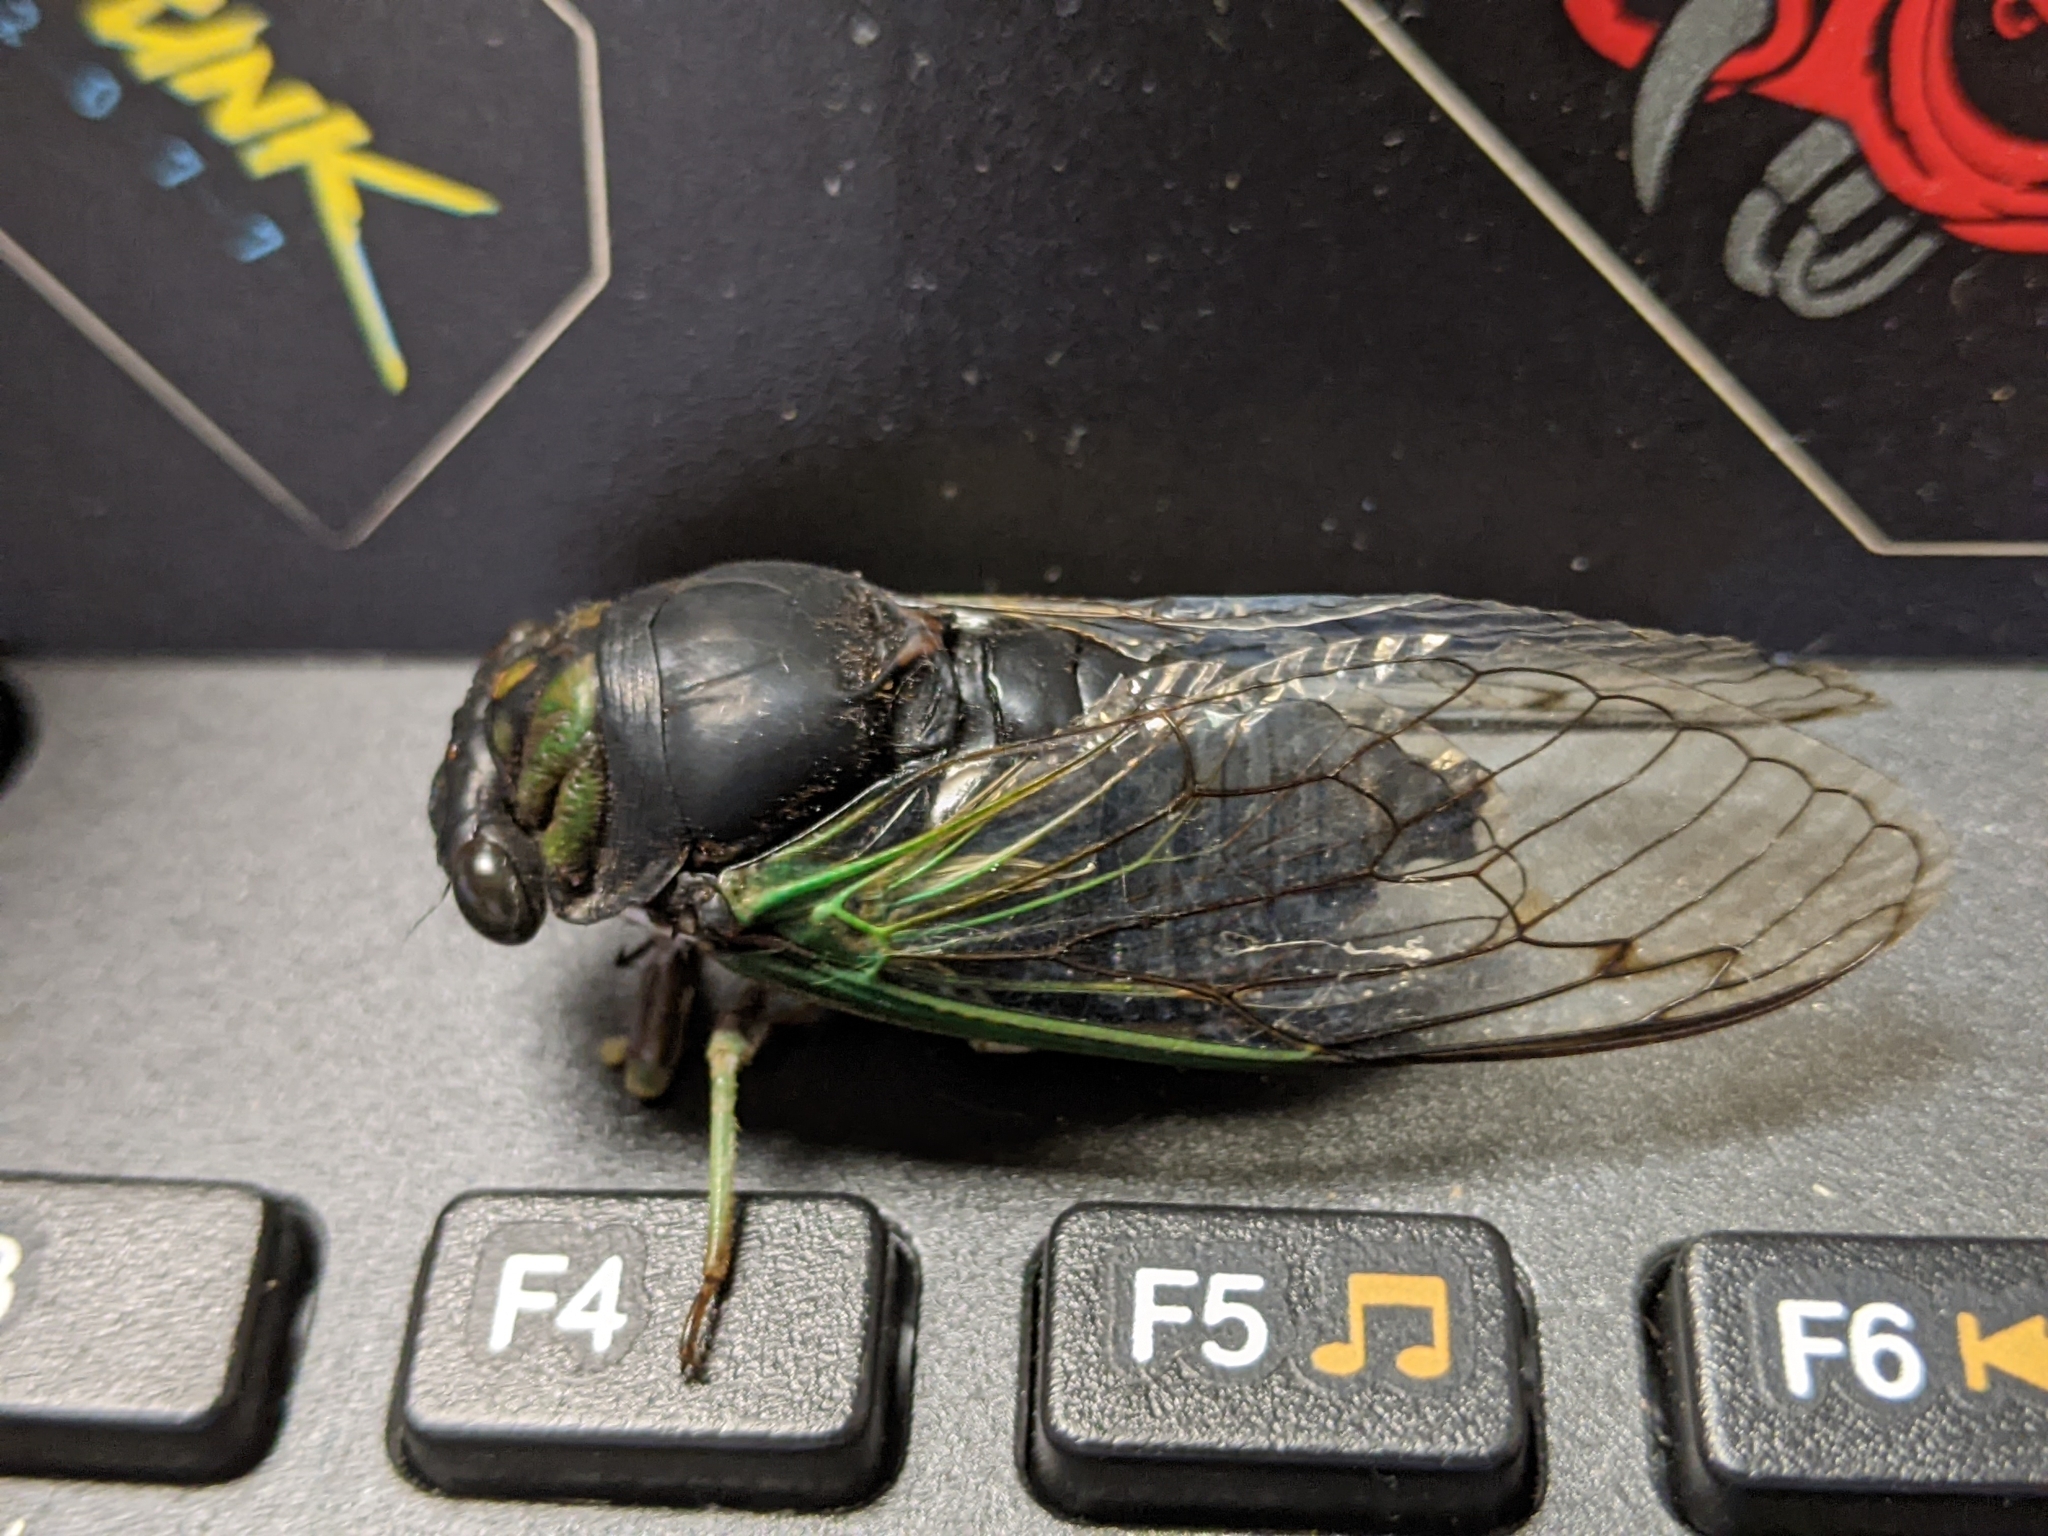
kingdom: Animalia
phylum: Arthropoda
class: Insecta
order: Hemiptera
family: Cicadidae
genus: Neotibicen
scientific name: Neotibicen tibicen
